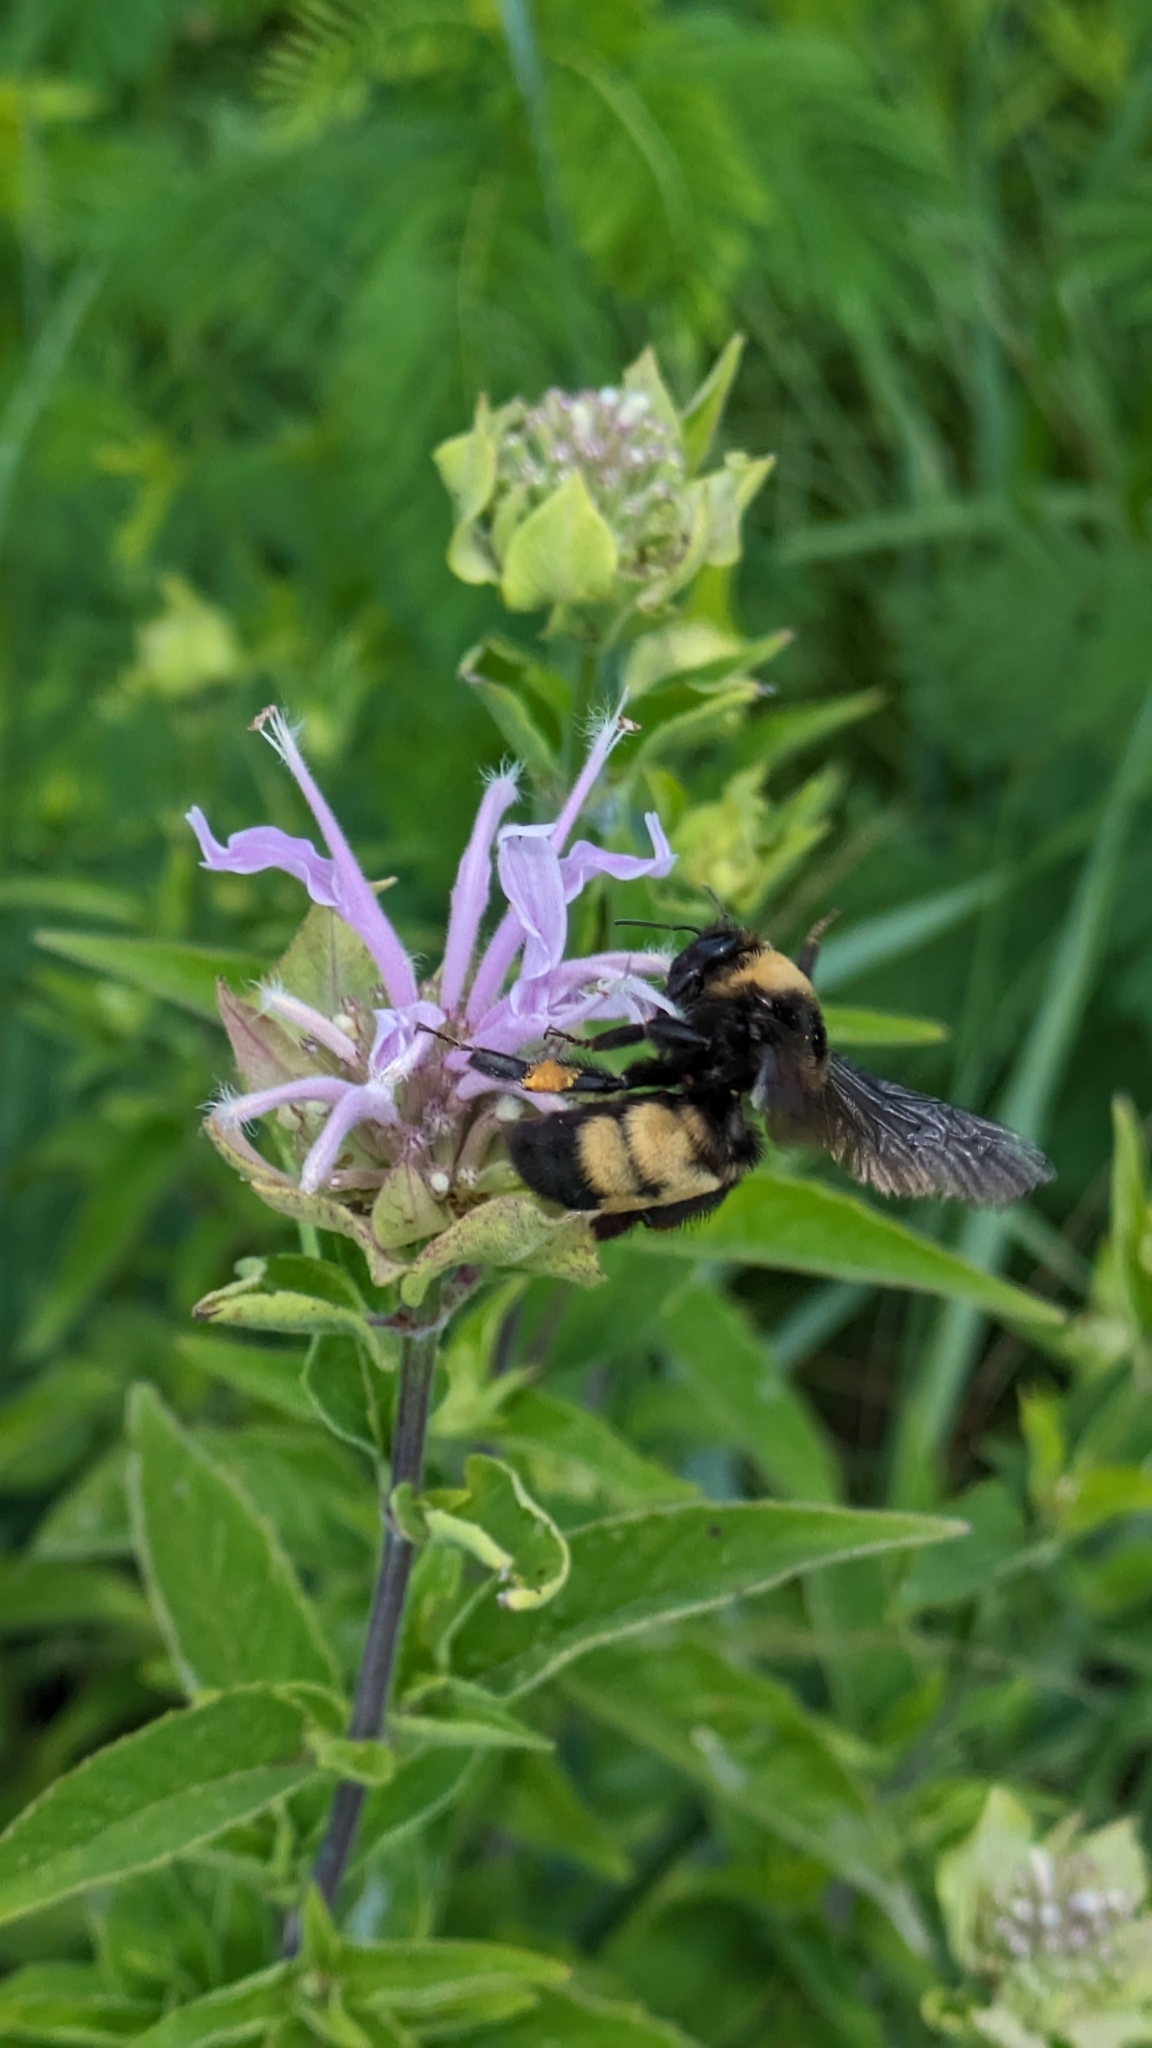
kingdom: Animalia
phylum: Arthropoda
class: Insecta
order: Hymenoptera
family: Apidae
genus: Bombus
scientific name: Bombus auricomus
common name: Black and gold bumble bee
